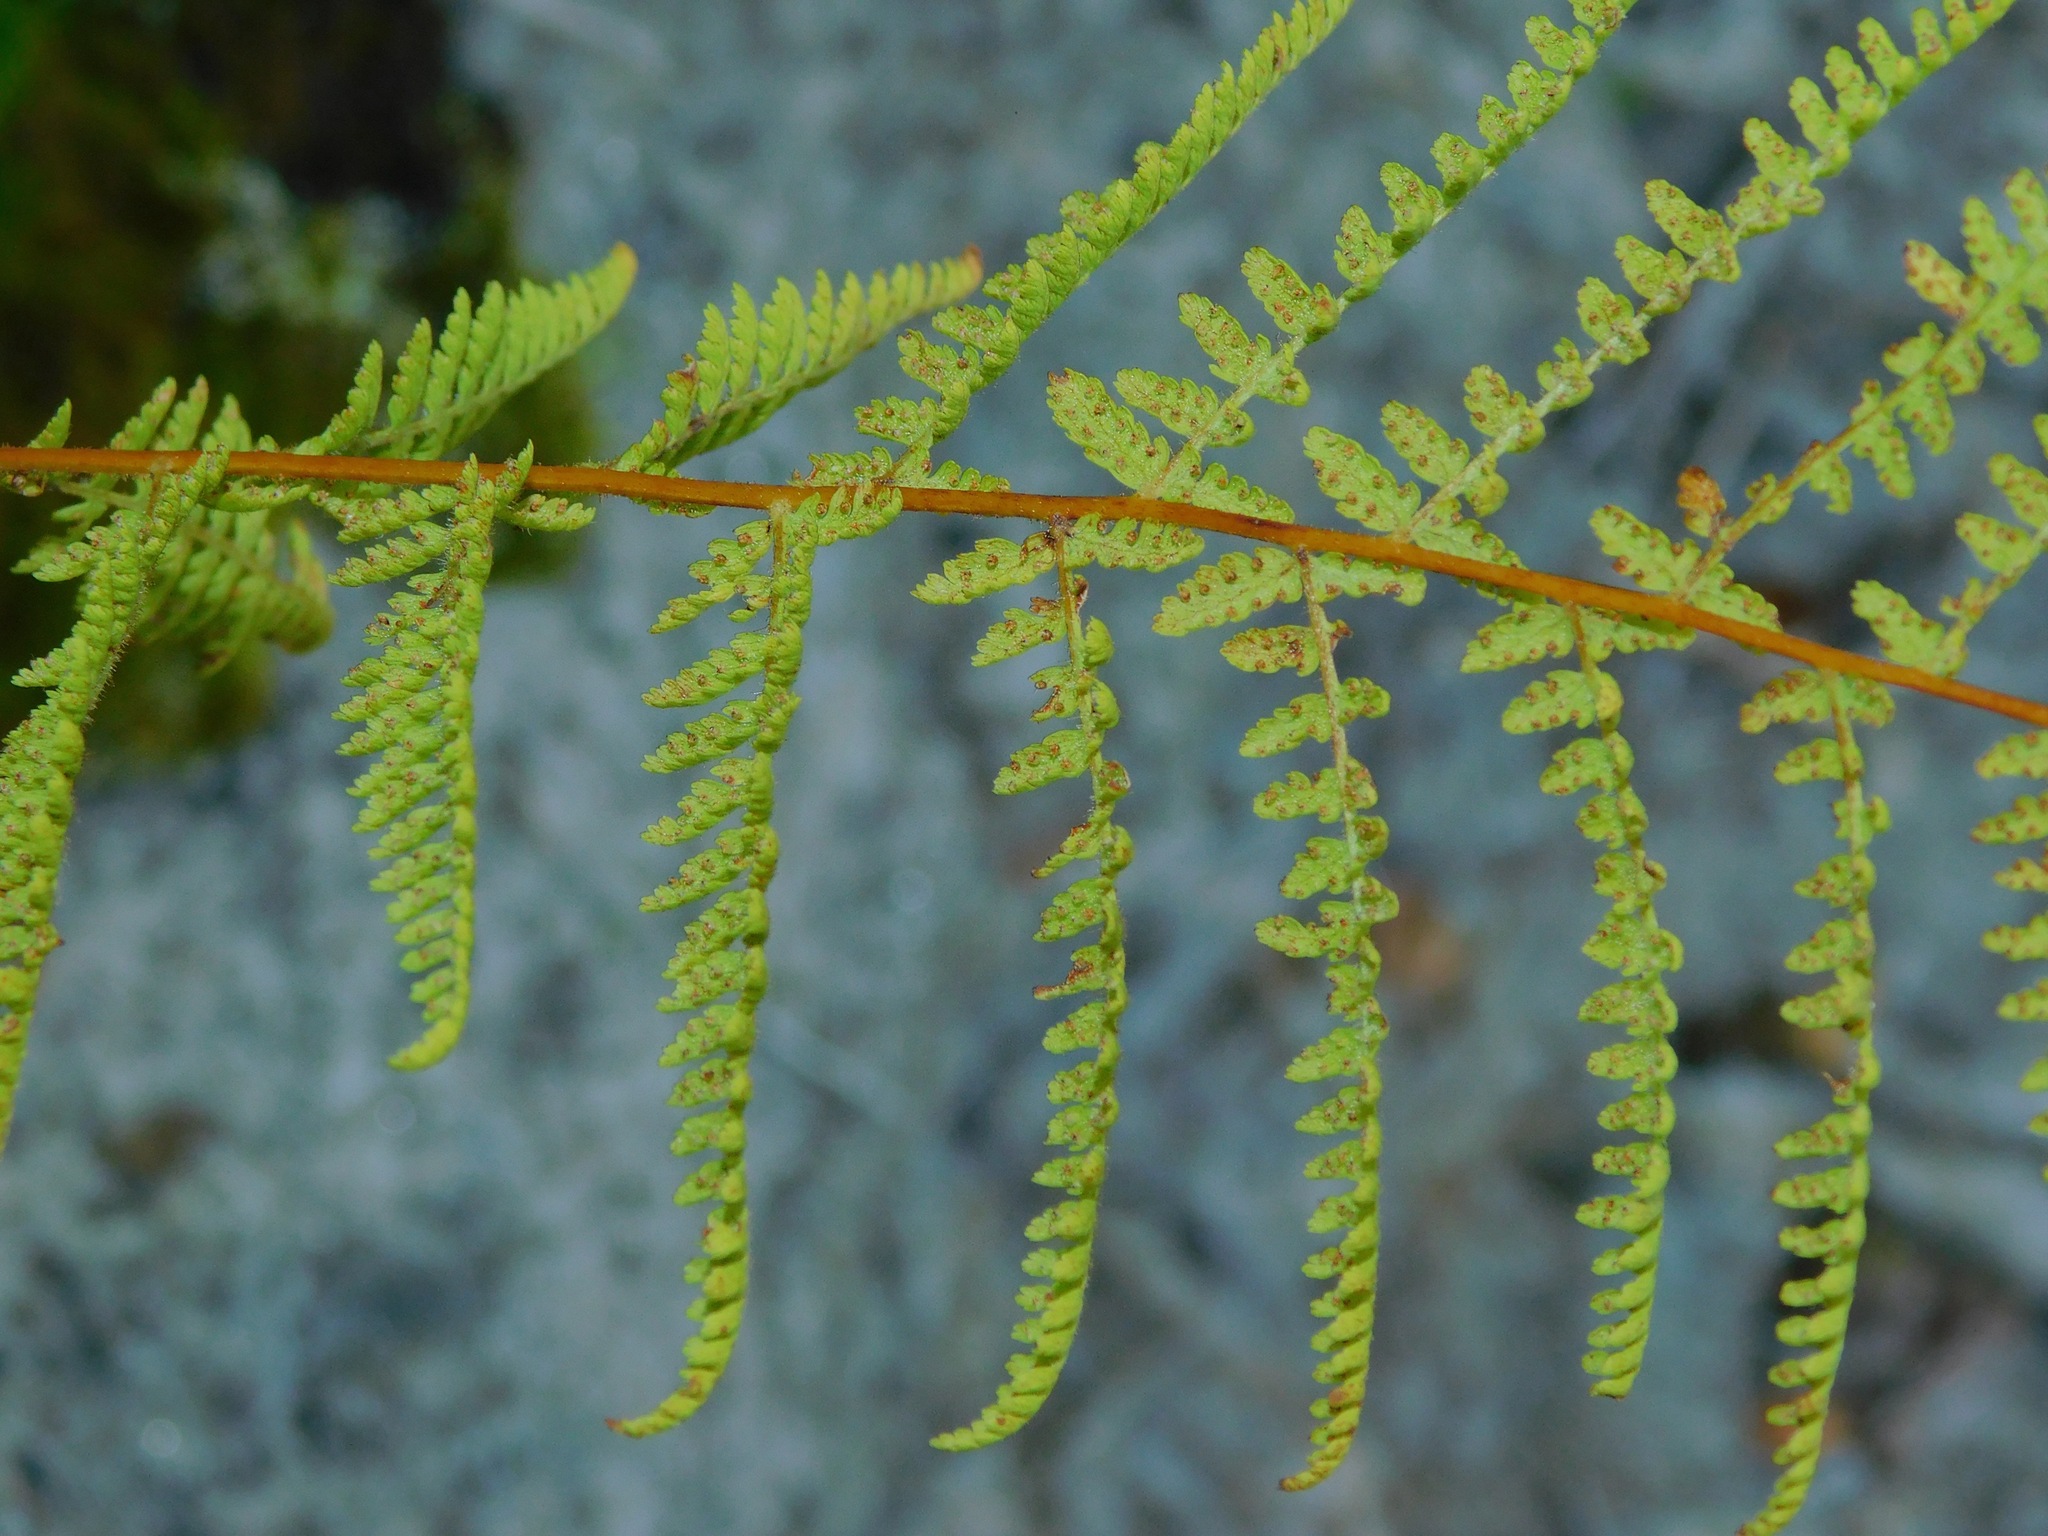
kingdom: Plantae
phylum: Tracheophyta
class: Polypodiopsida
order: Polypodiales
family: Dennstaedtiaceae
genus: Sitobolium
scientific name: Sitobolium punctilobum
